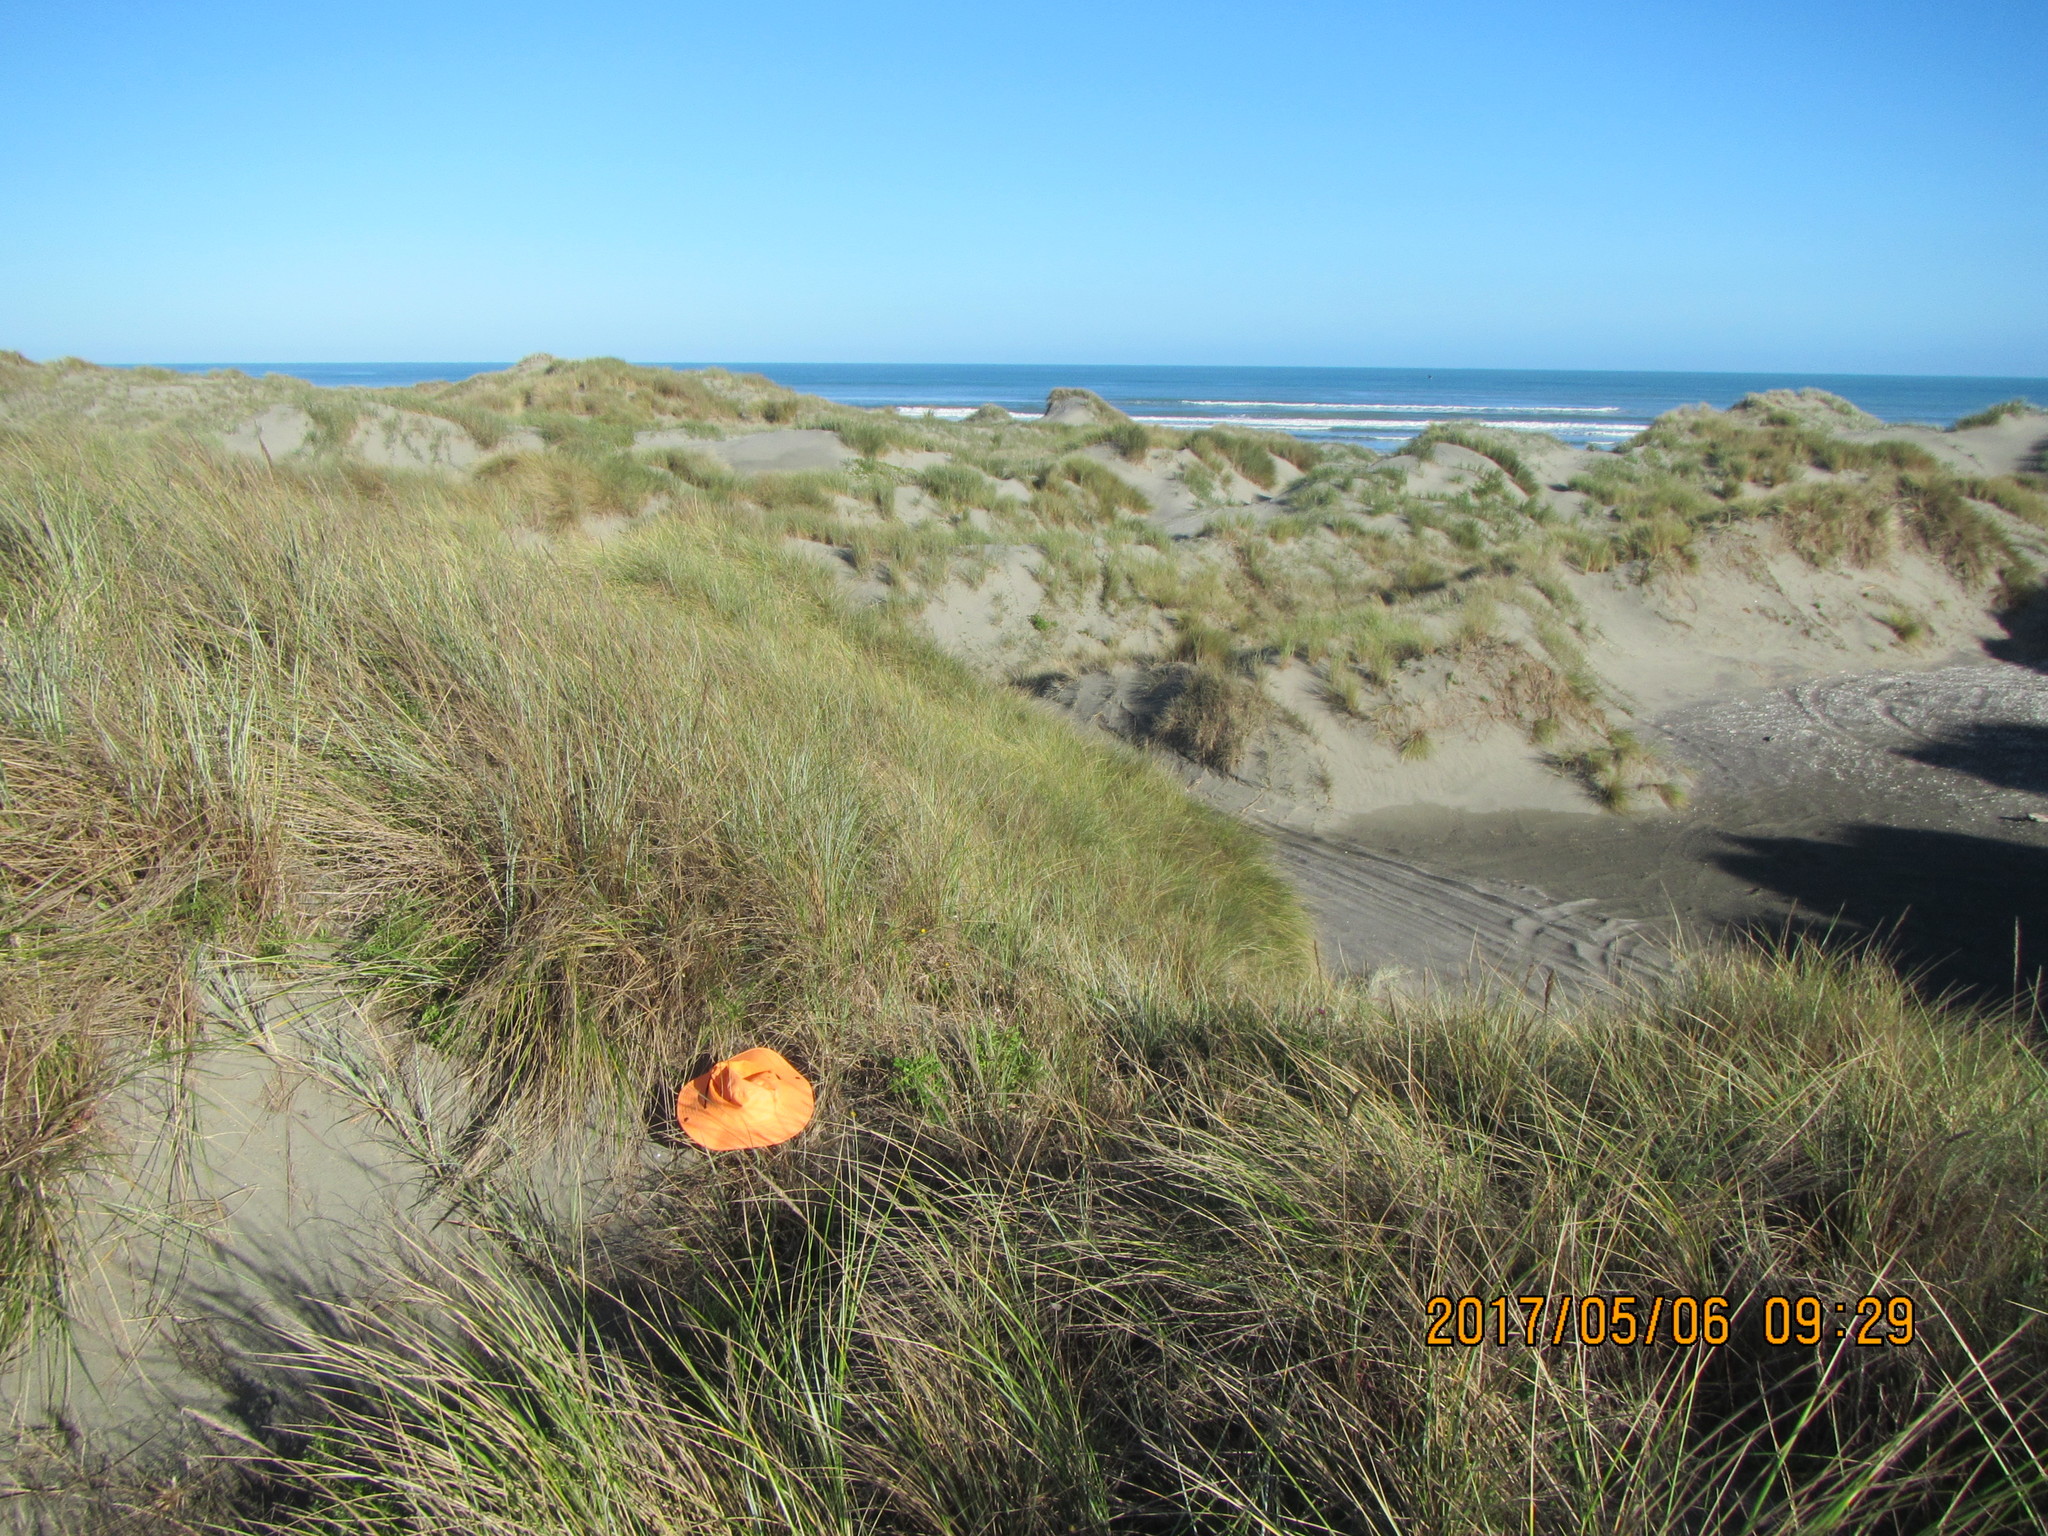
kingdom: Animalia
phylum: Arthropoda
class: Arachnida
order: Araneae
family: Theridiidae
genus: Latrodectus
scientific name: Latrodectus katipo
